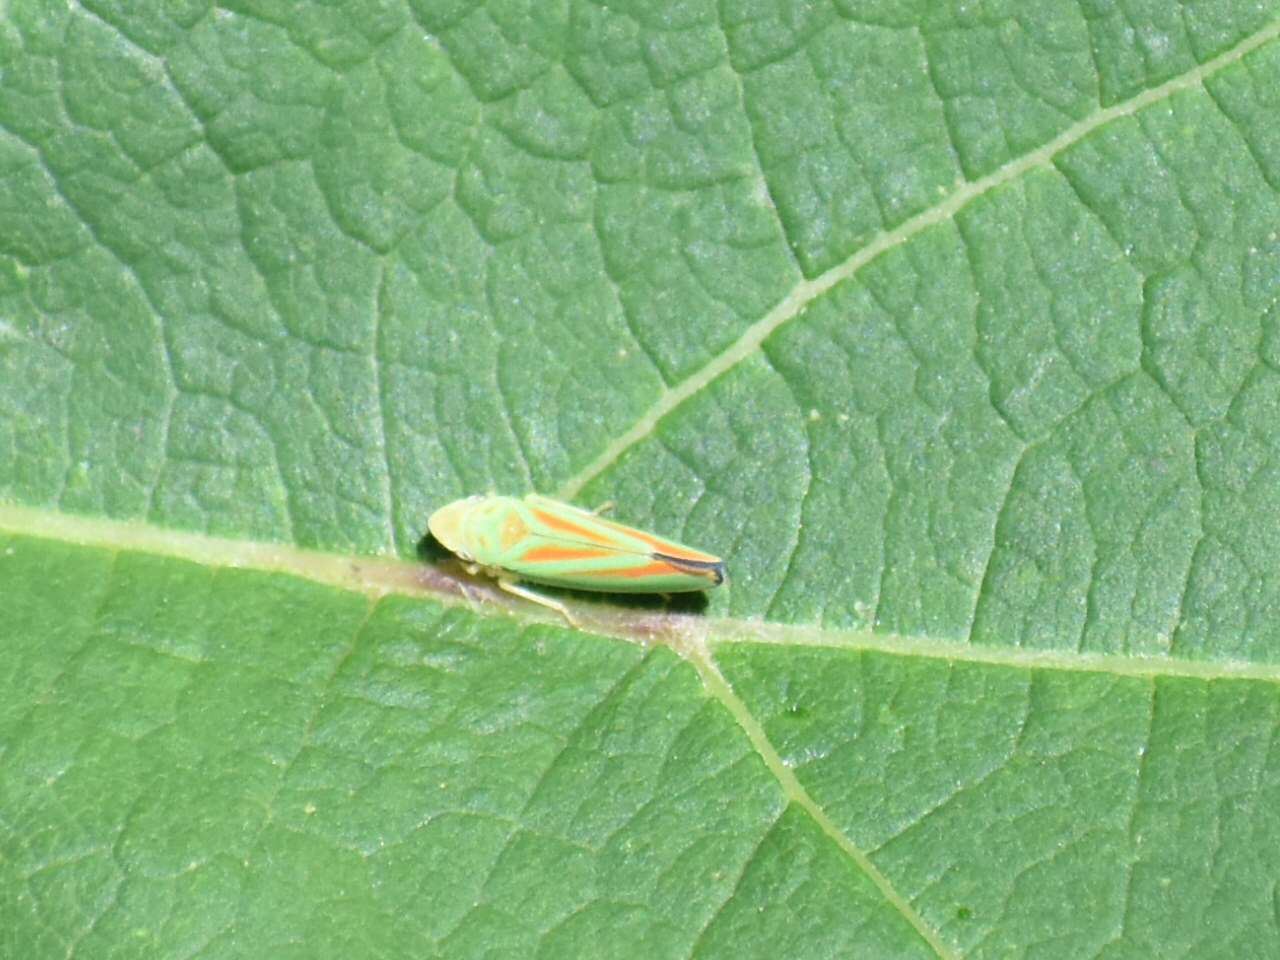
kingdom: Animalia
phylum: Arthropoda
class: Insecta
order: Hemiptera
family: Cicadellidae
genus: Graphocephala
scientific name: Graphocephala fennahi
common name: Rhododendron leafhopper
